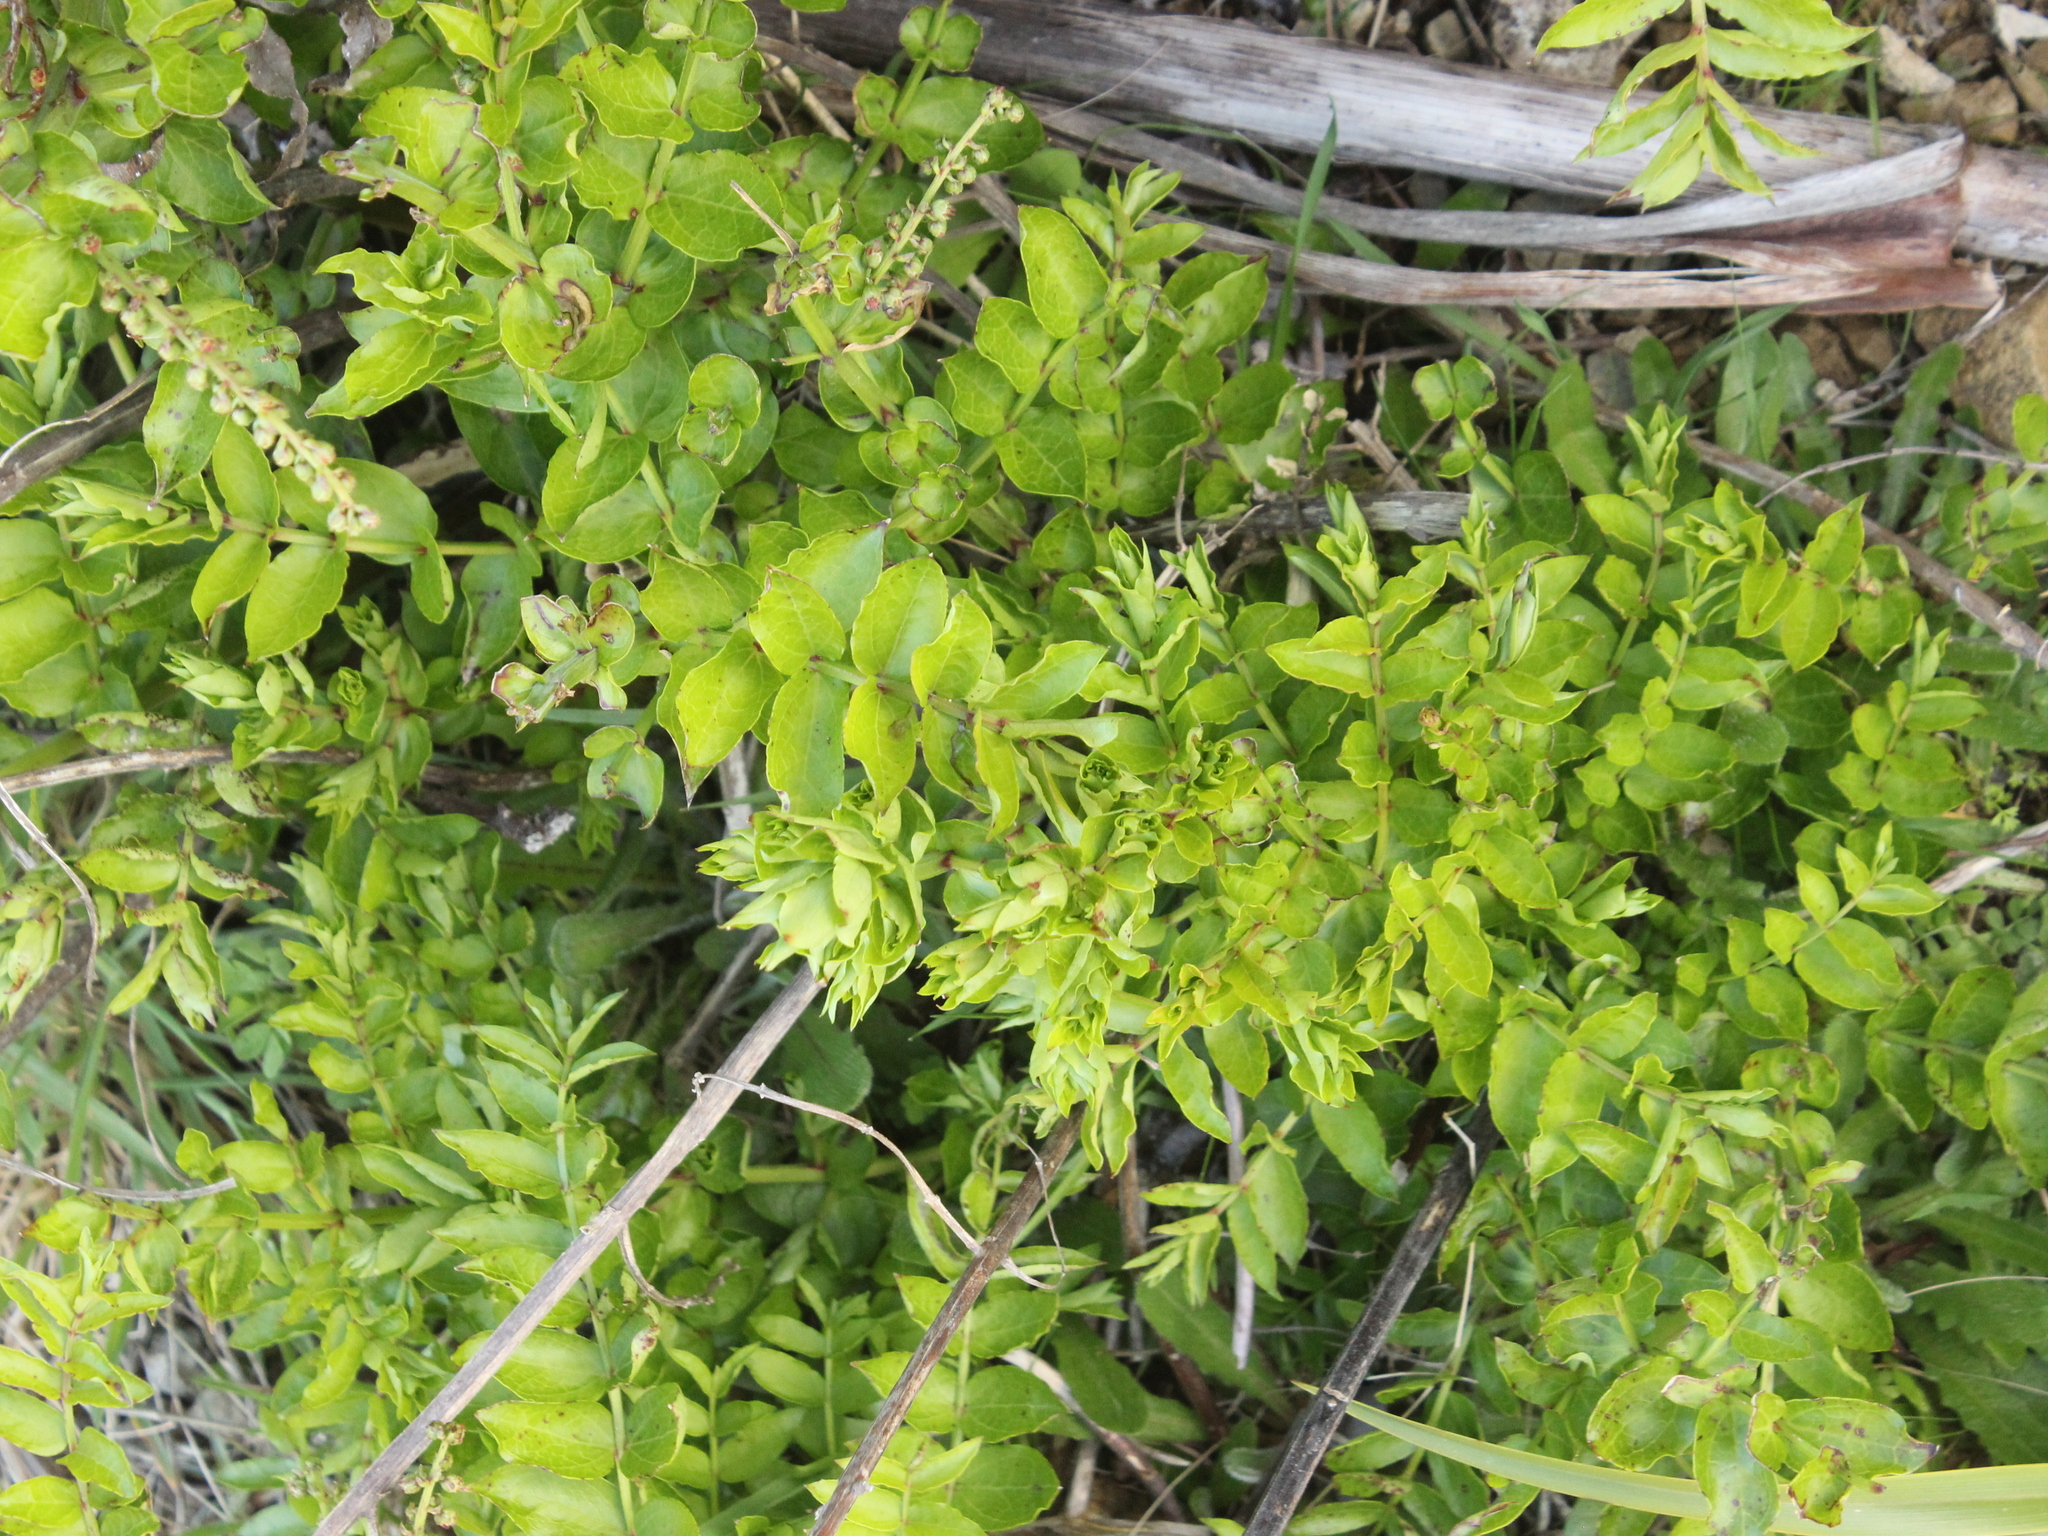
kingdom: Plantae
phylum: Tracheophyta
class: Magnoliopsida
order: Cucurbitales
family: Coriariaceae
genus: Coriaria
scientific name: Coriaria sarmentosa
